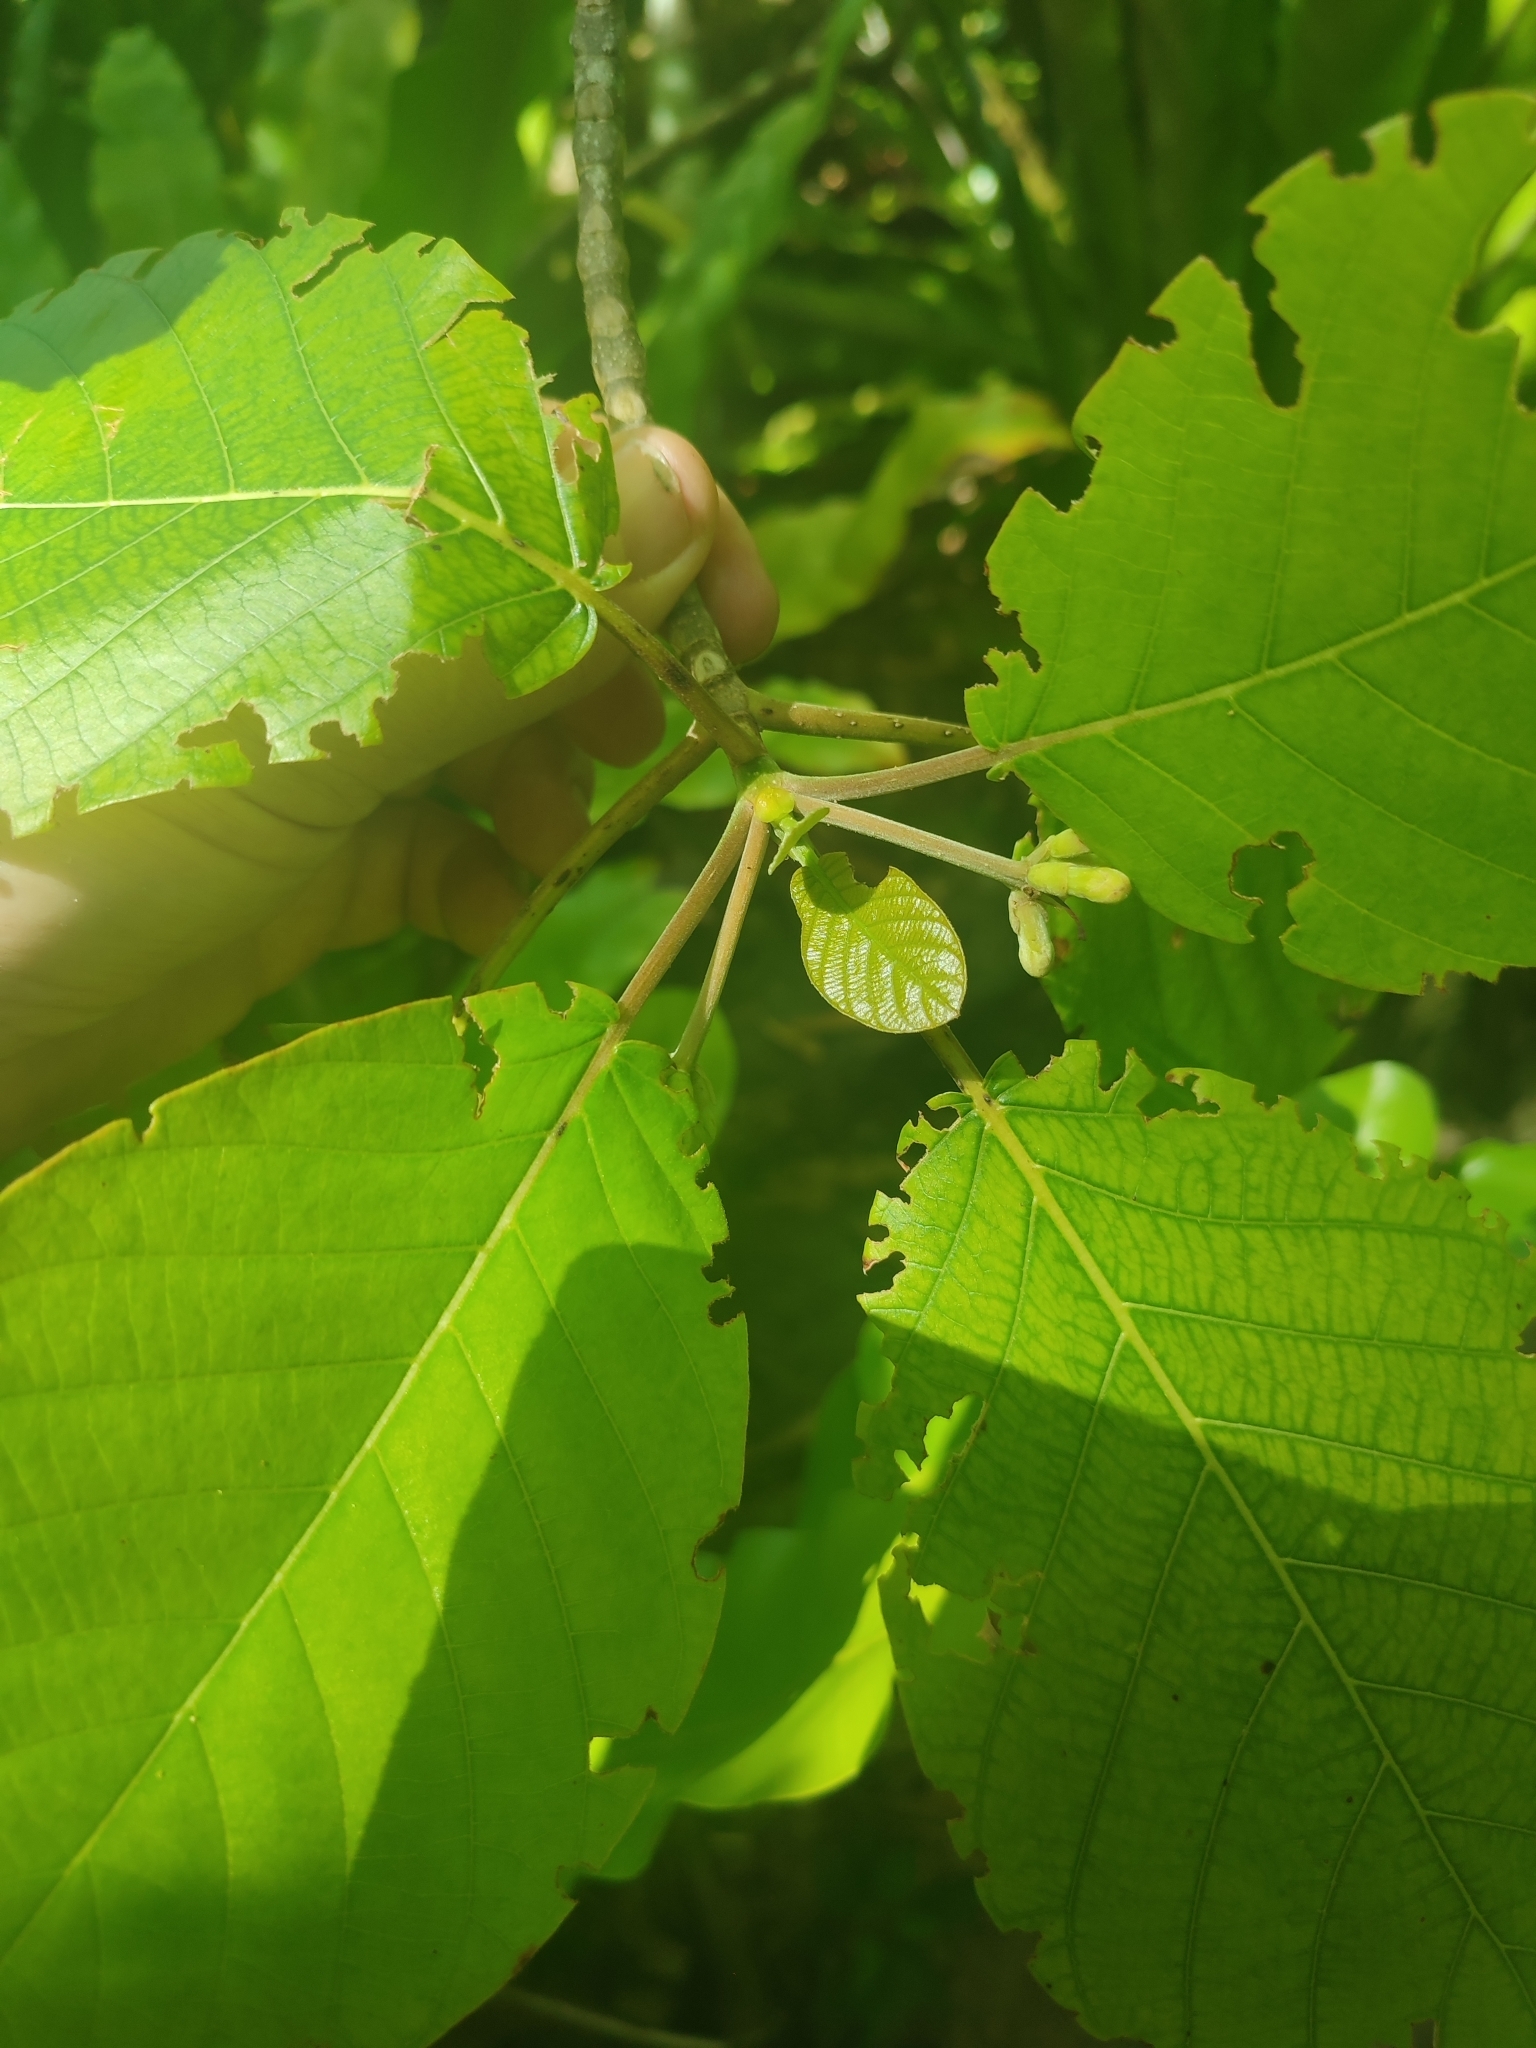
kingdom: Plantae
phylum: Tracheophyta
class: Magnoliopsida
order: Gentianales
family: Rubiaceae
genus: Guettarda
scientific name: Guettarda speciosa
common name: Sea randa
